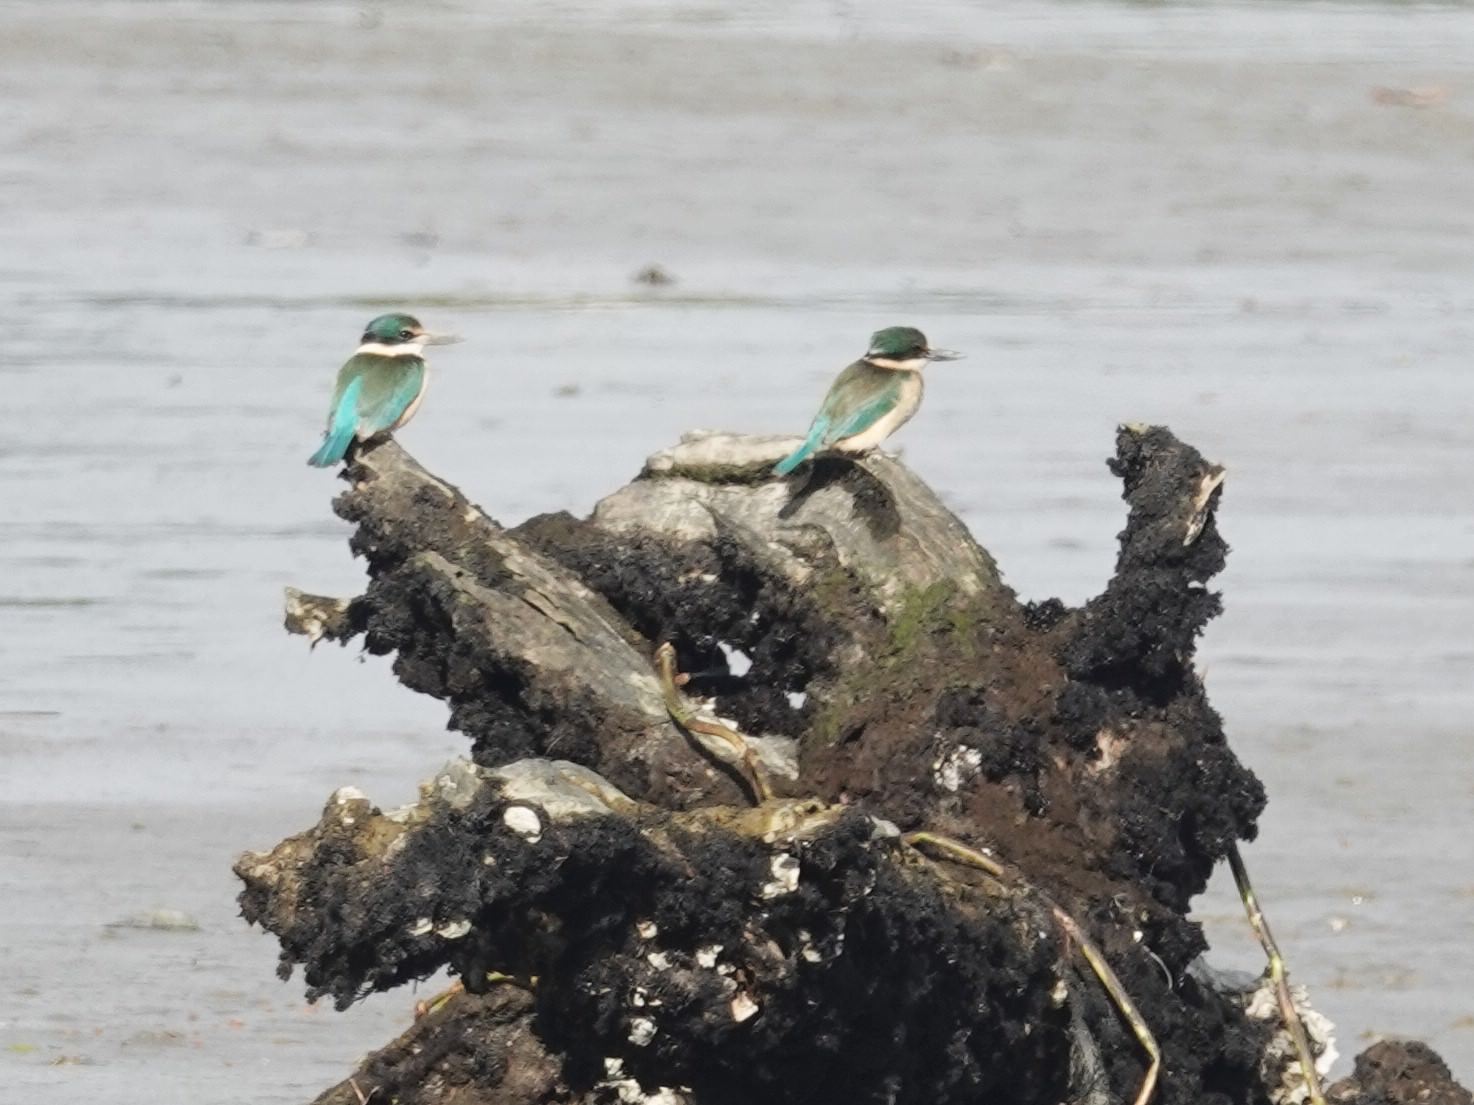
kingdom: Animalia
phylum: Chordata
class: Aves
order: Coraciiformes
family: Alcedinidae
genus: Todiramphus
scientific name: Todiramphus sanctus
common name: Sacred kingfisher
